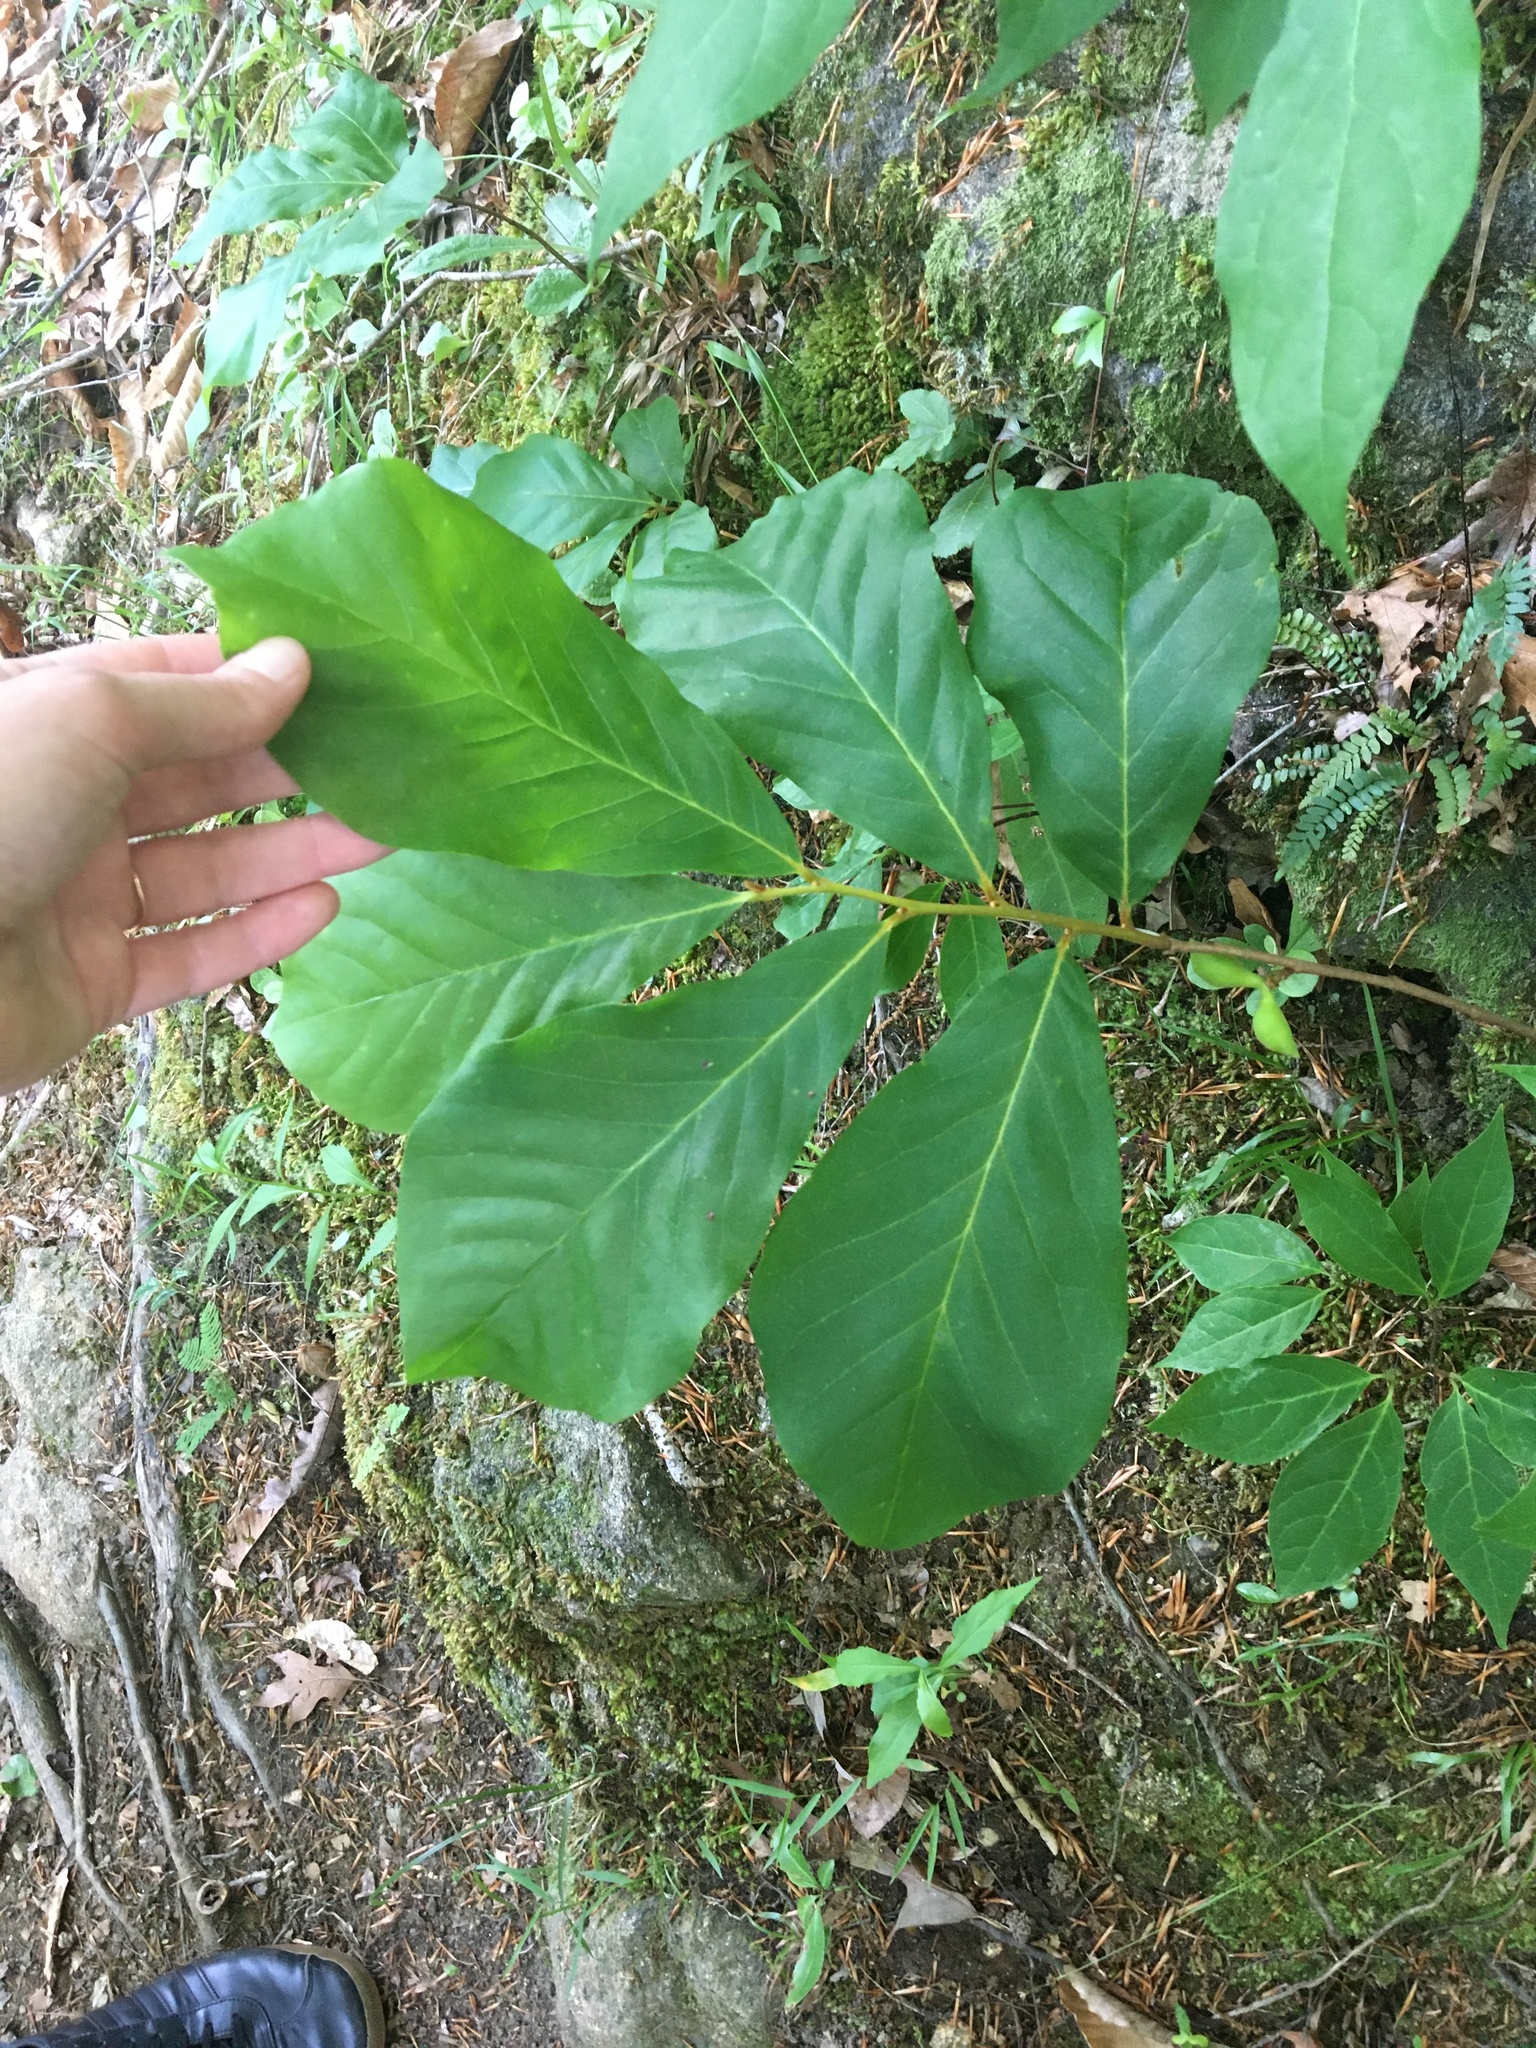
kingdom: Plantae
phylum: Tracheophyta
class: Magnoliopsida
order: Magnoliales
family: Annonaceae
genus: Asimina
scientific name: Asimina parviflora
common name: Dwarf pawpaw
